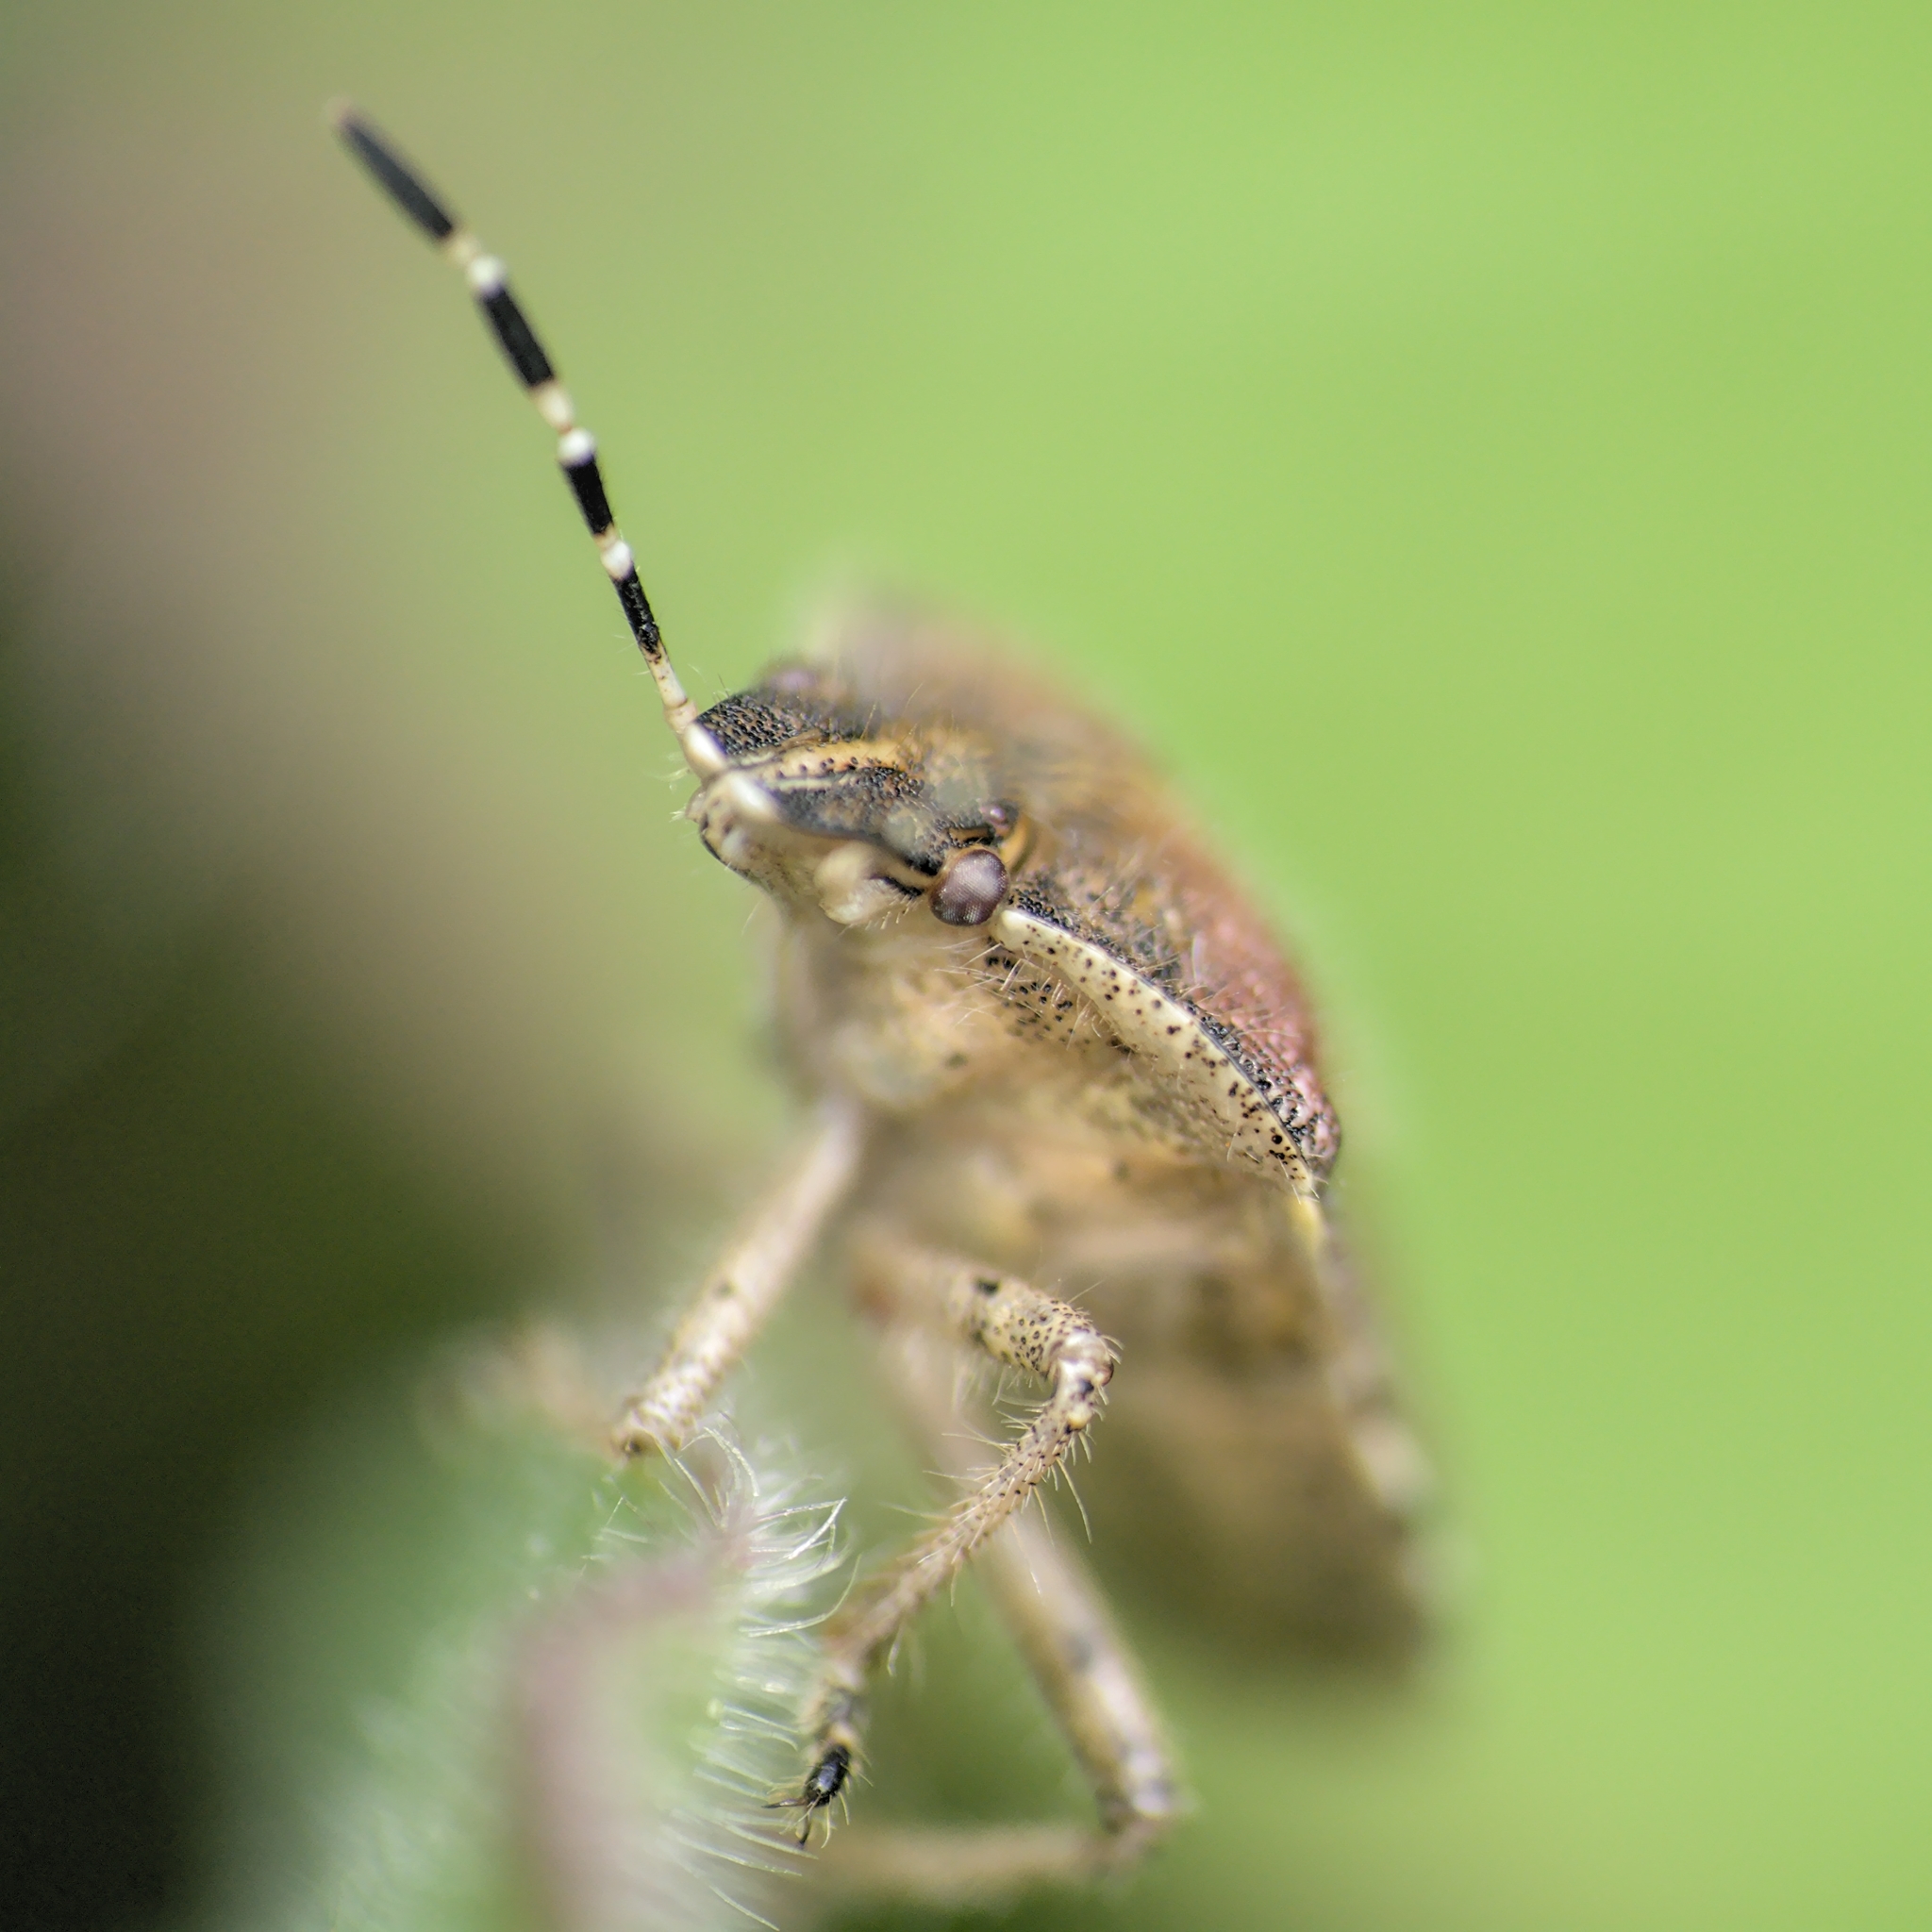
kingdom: Animalia
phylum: Arthropoda
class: Insecta
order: Hemiptera
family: Pentatomidae
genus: Dolycoris
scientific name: Dolycoris baccarum
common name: Sloe bug
